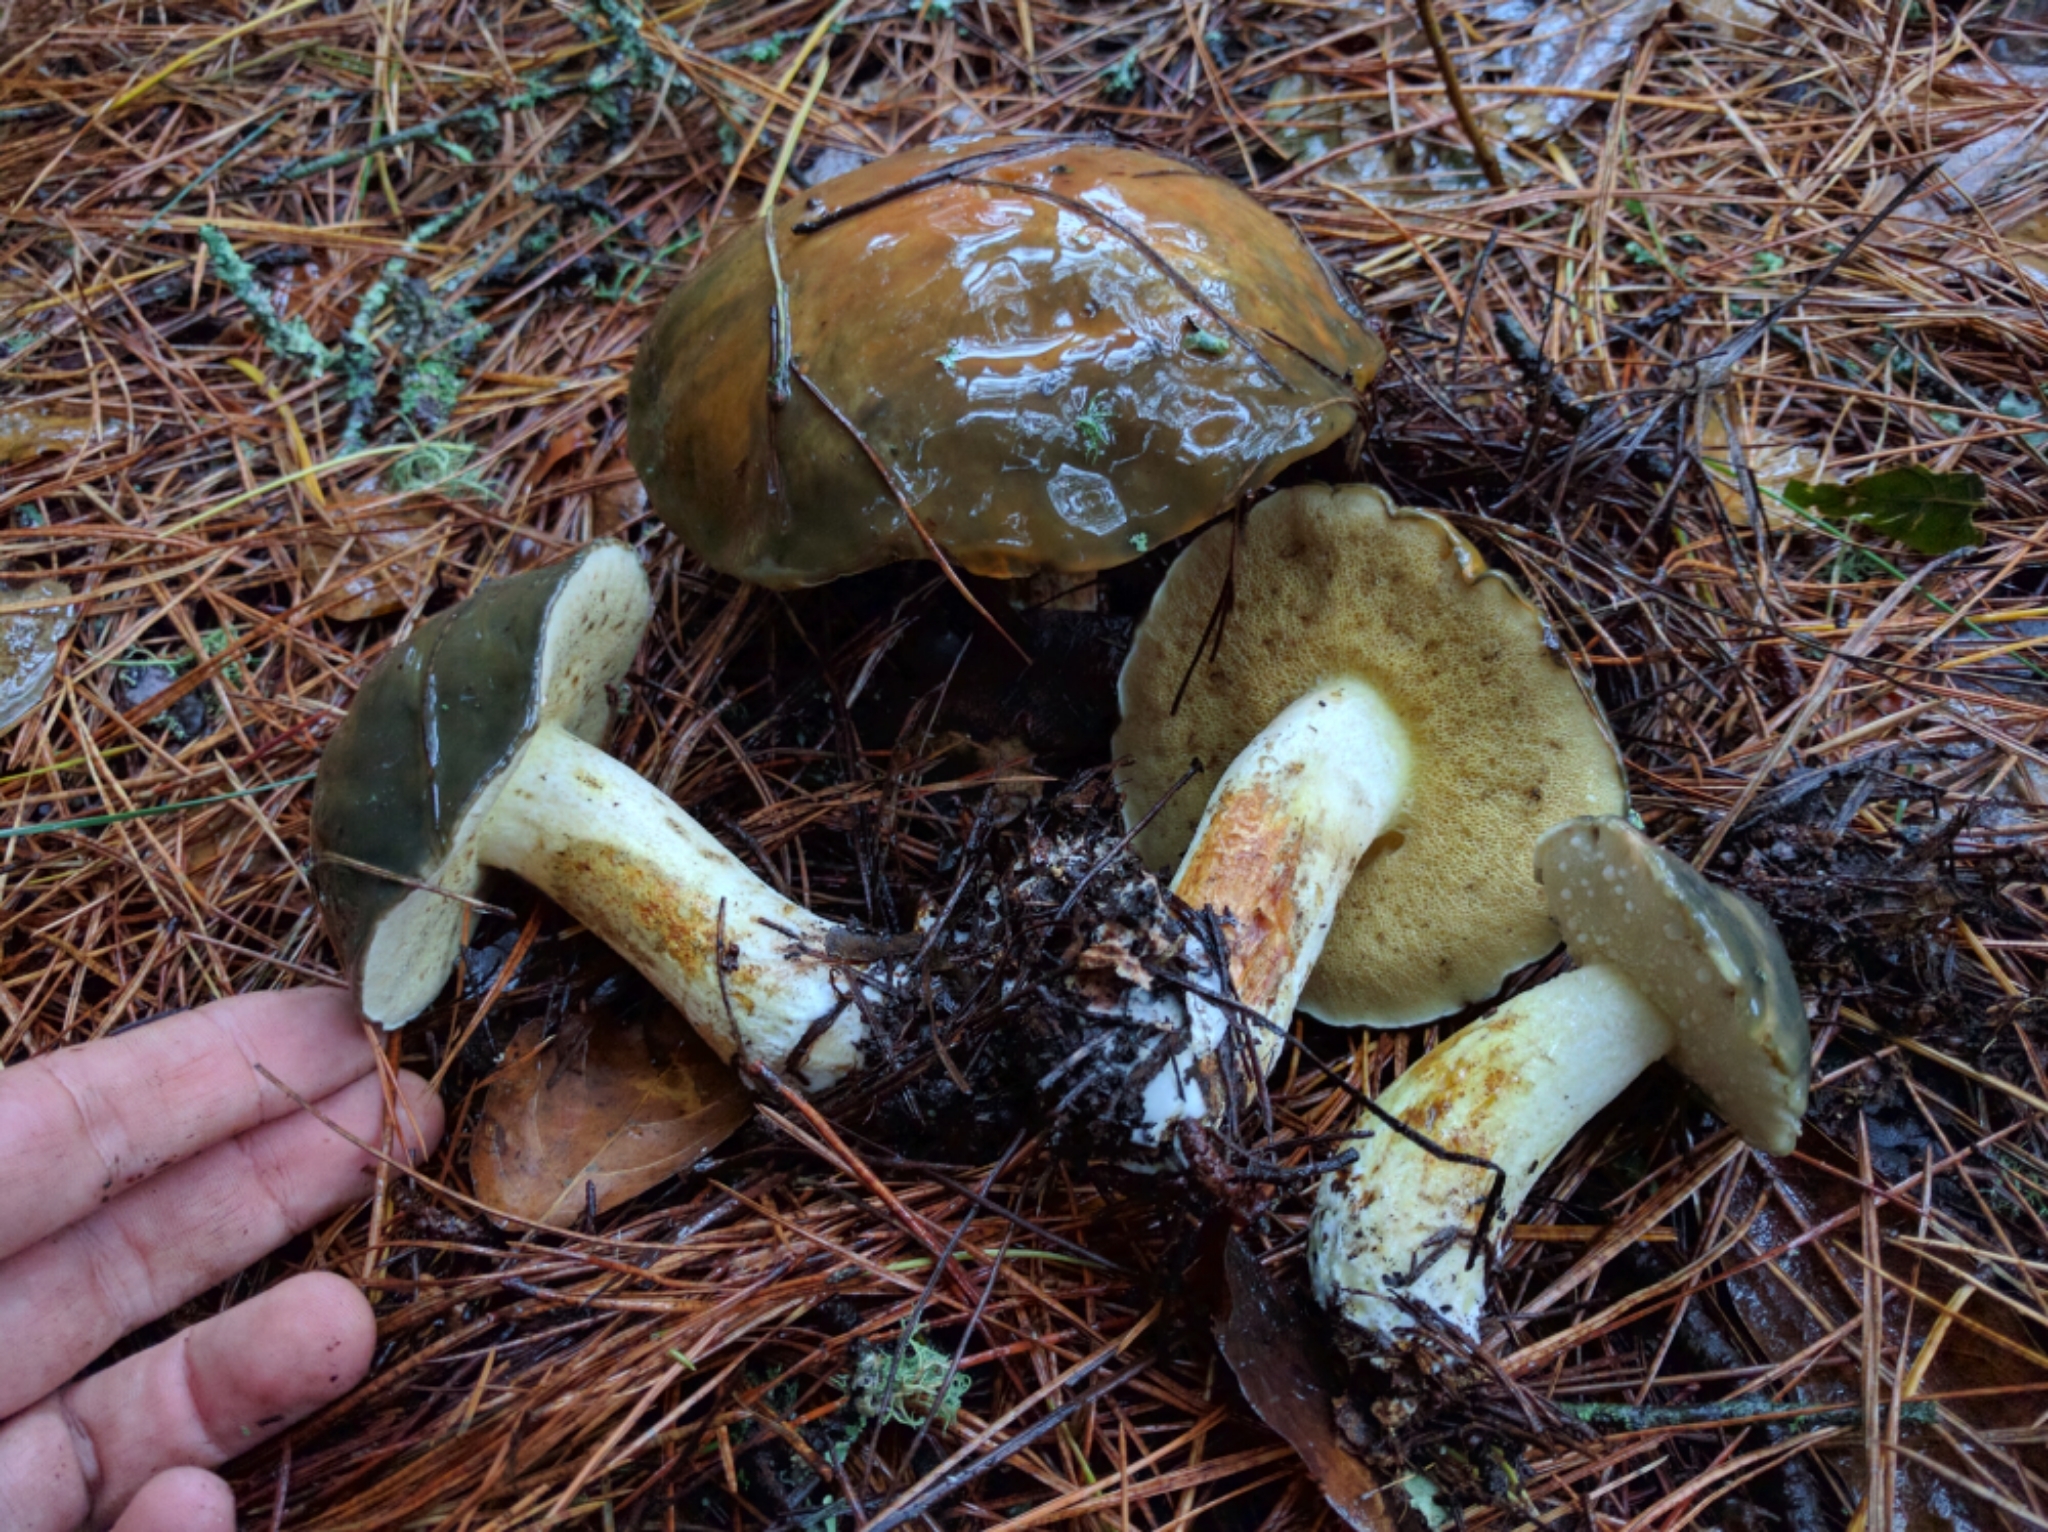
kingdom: Fungi
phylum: Basidiomycota
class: Agaricomycetes
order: Boletales
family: Suillaceae
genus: Suillus
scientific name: Suillus pungens
